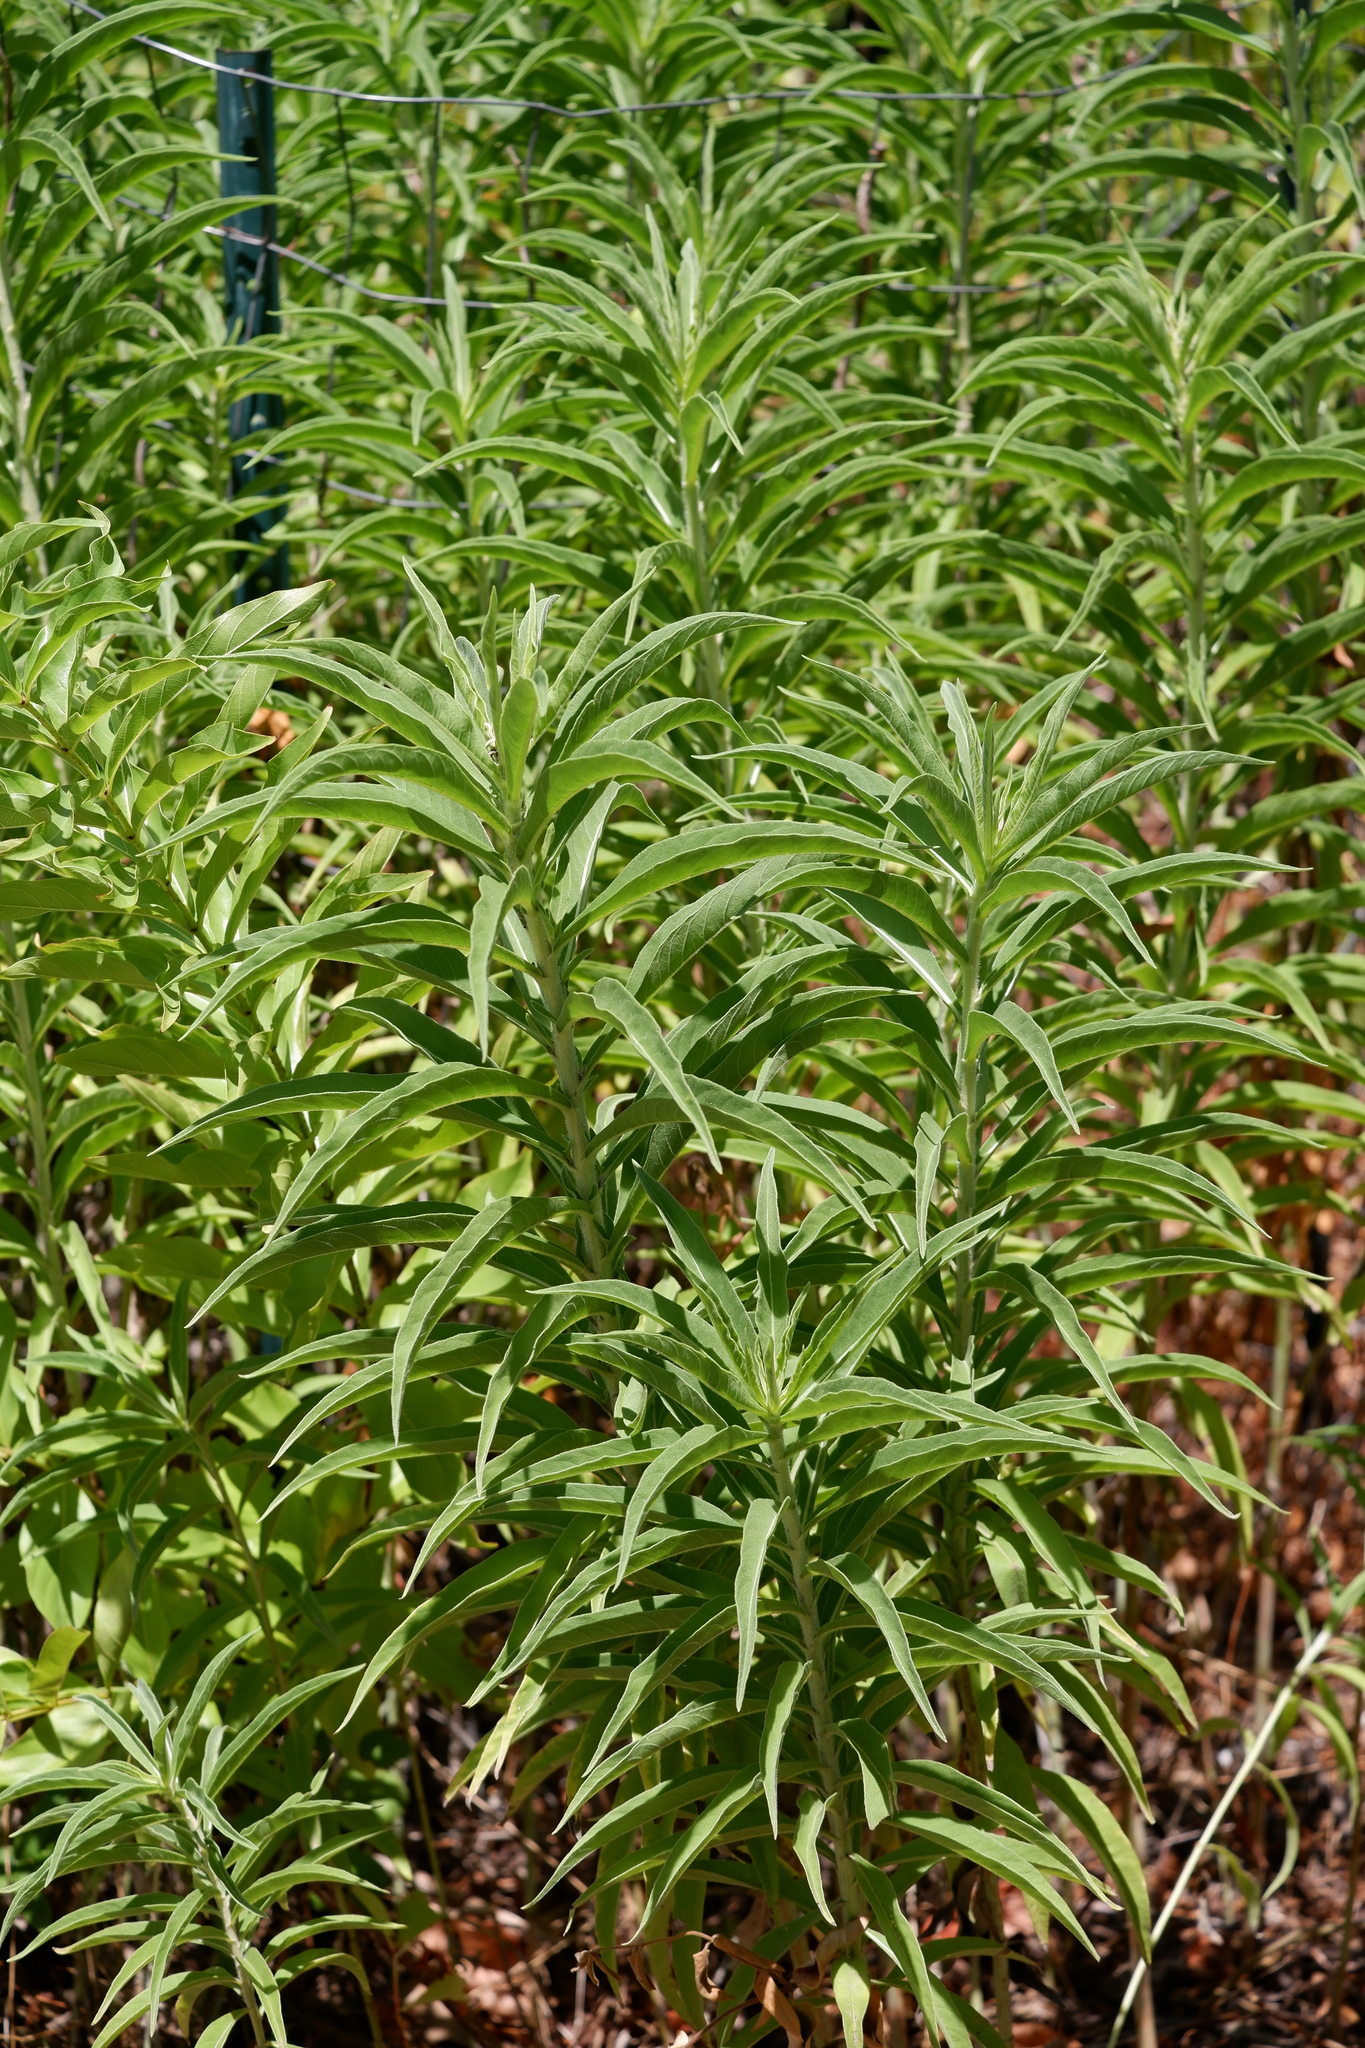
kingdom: Plantae
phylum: Tracheophyta
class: Magnoliopsida
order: Asterales
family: Asteraceae
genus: Helianthus
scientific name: Helianthus maximiliani
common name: Maximilian's sunflower
